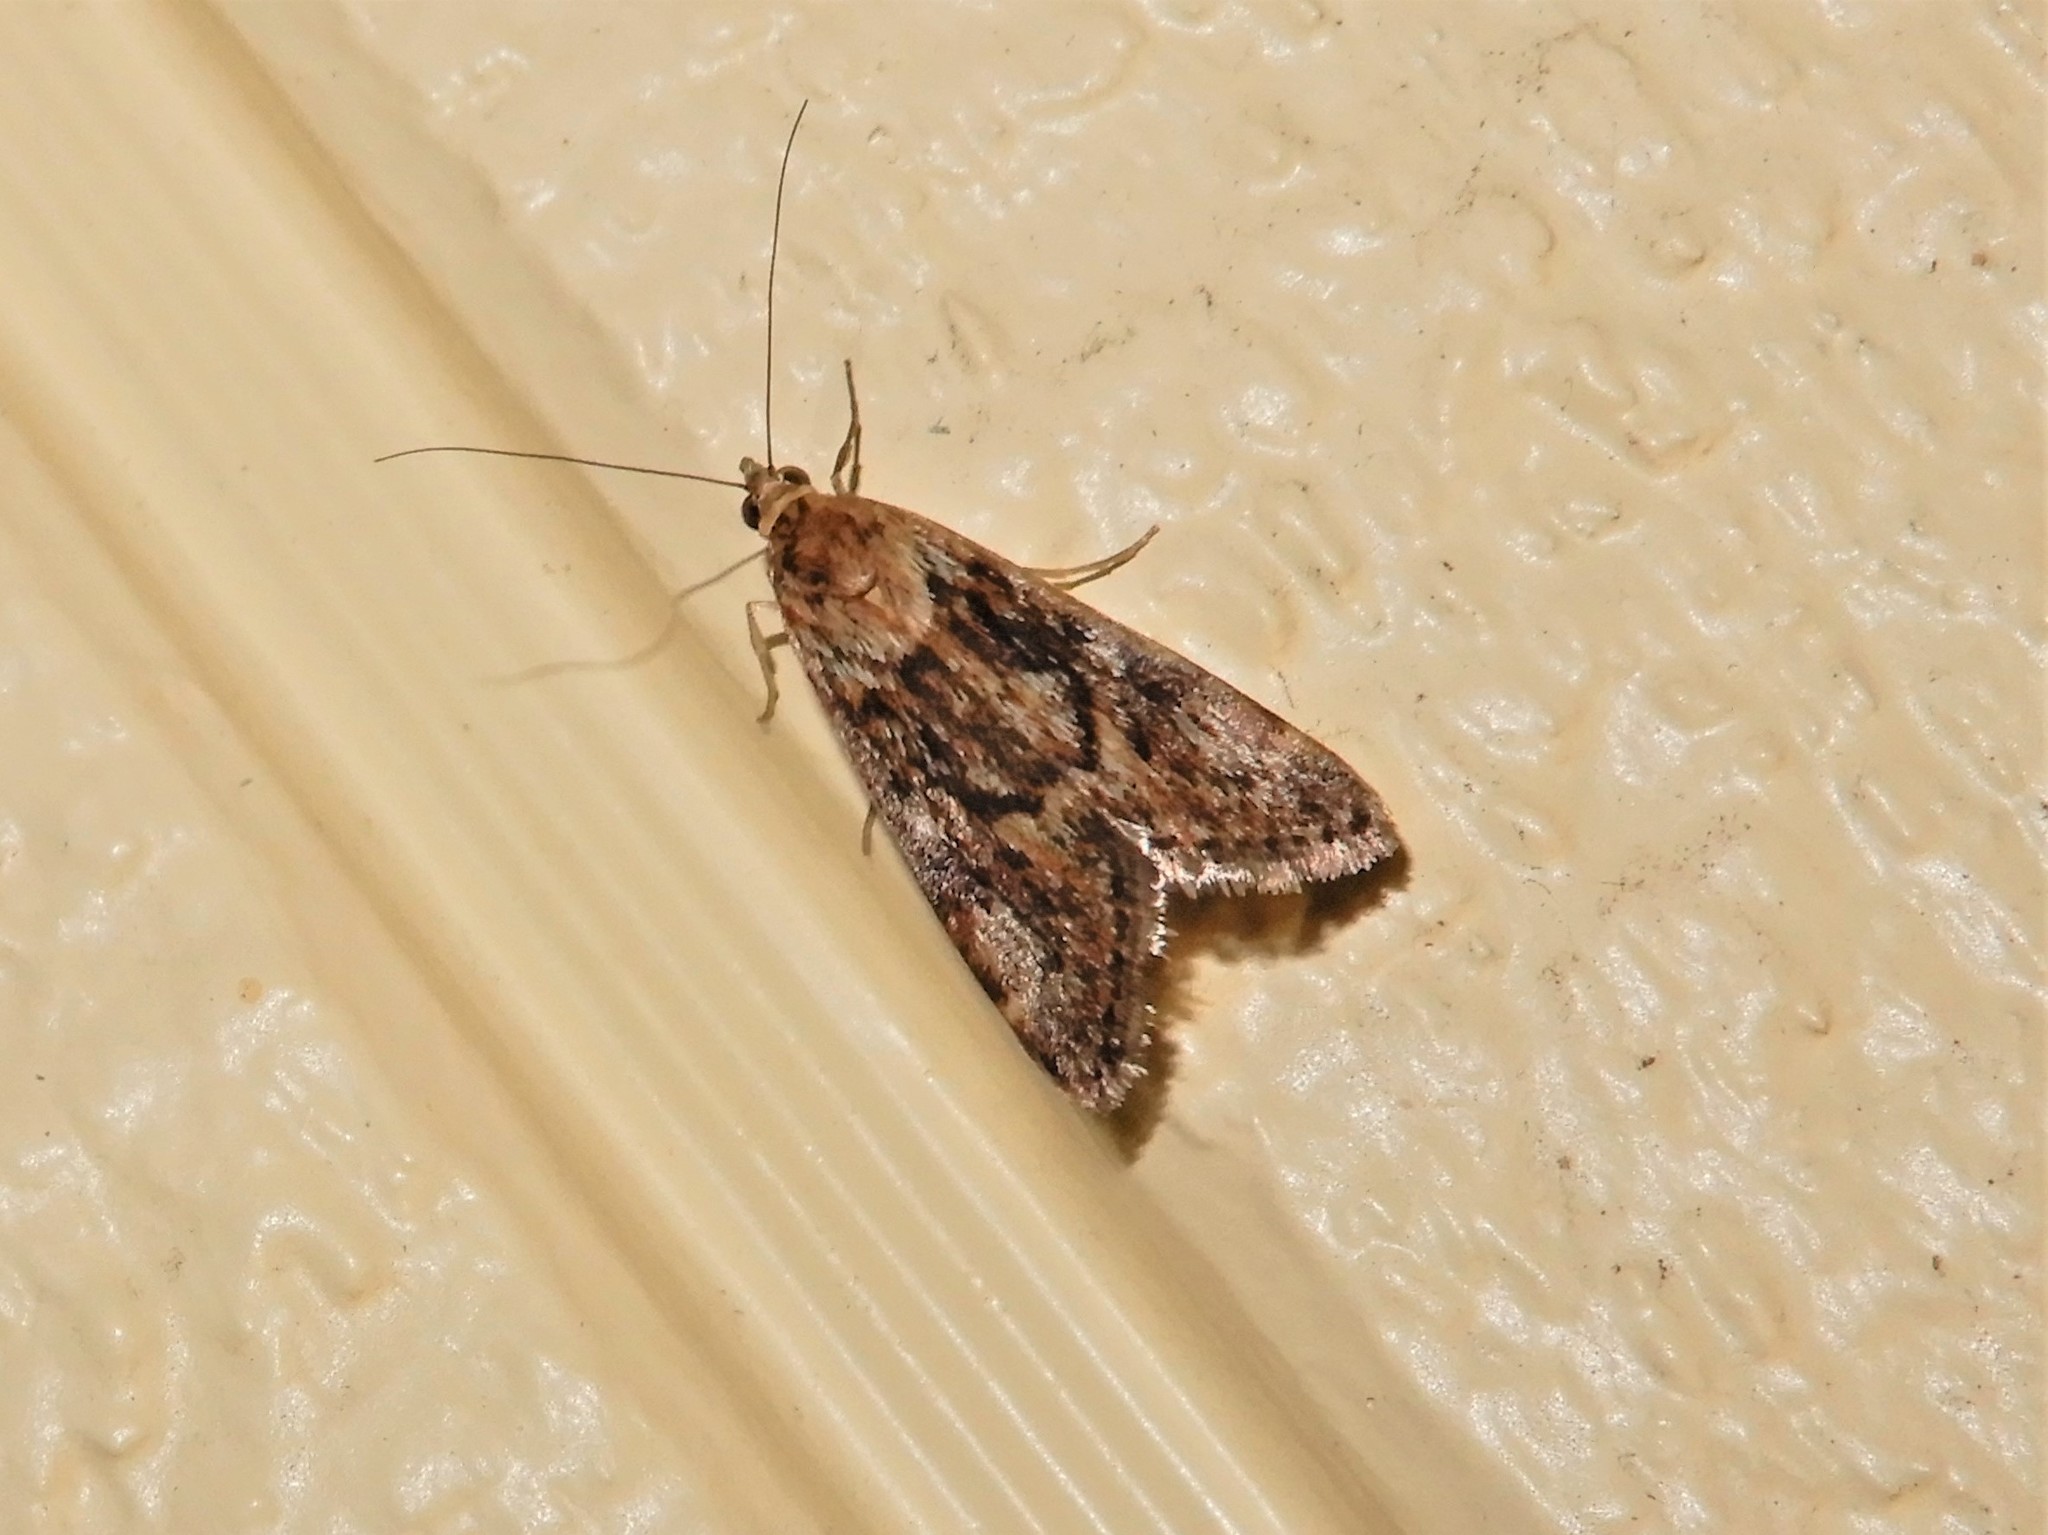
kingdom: Animalia
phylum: Arthropoda
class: Insecta
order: Lepidoptera
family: Crambidae
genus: Achyra
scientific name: Achyra affinitalis
